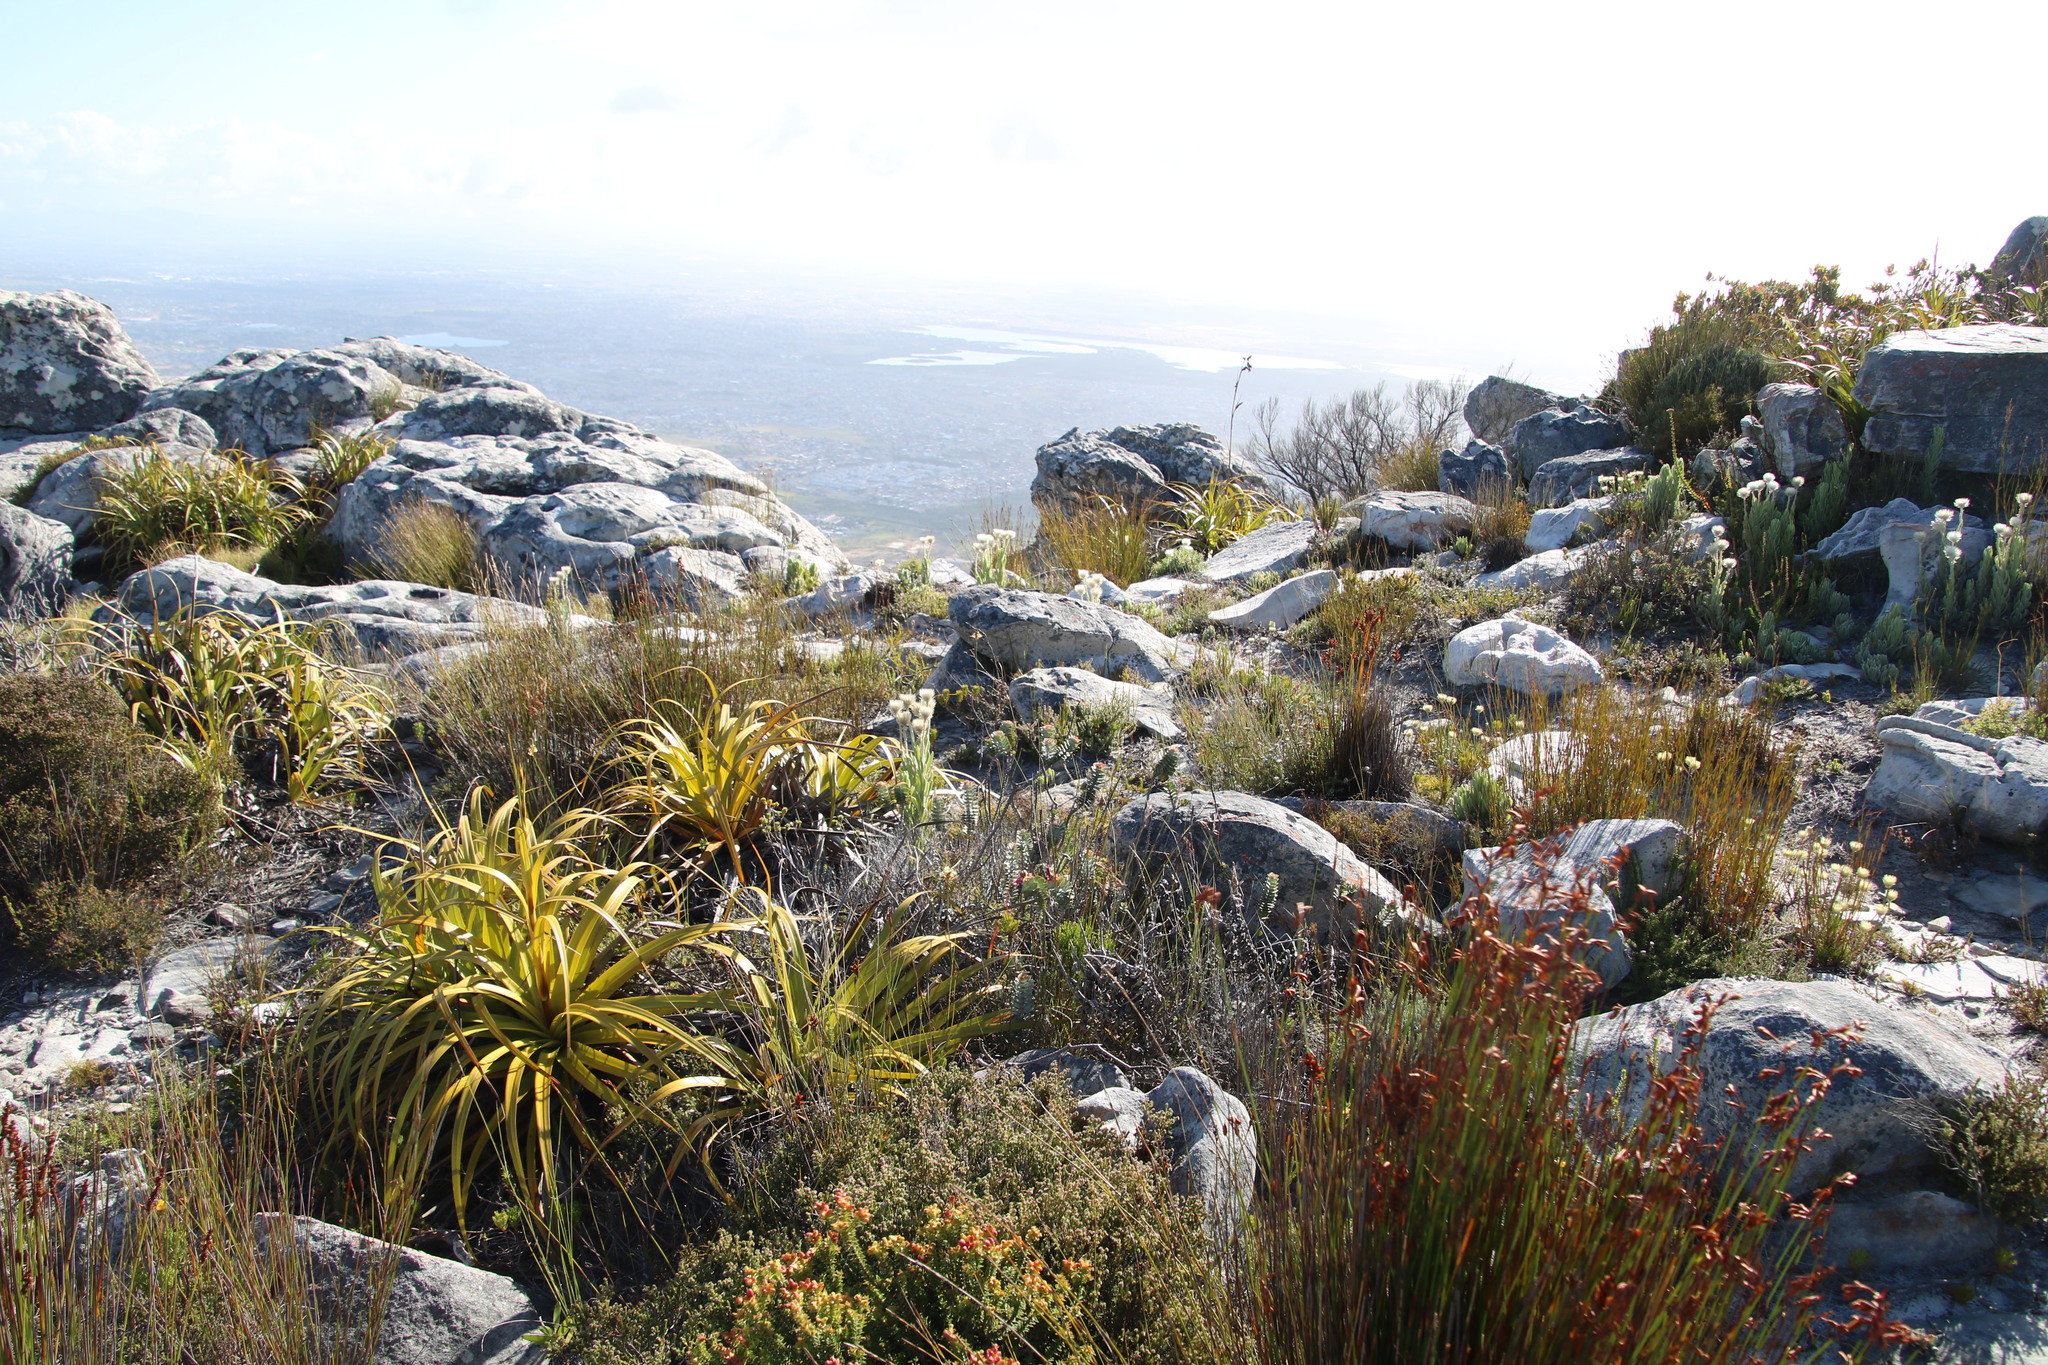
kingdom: Plantae
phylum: Tracheophyta
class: Liliopsida
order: Poales
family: Cyperaceae
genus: Tetraria
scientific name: Tetraria thermalis
